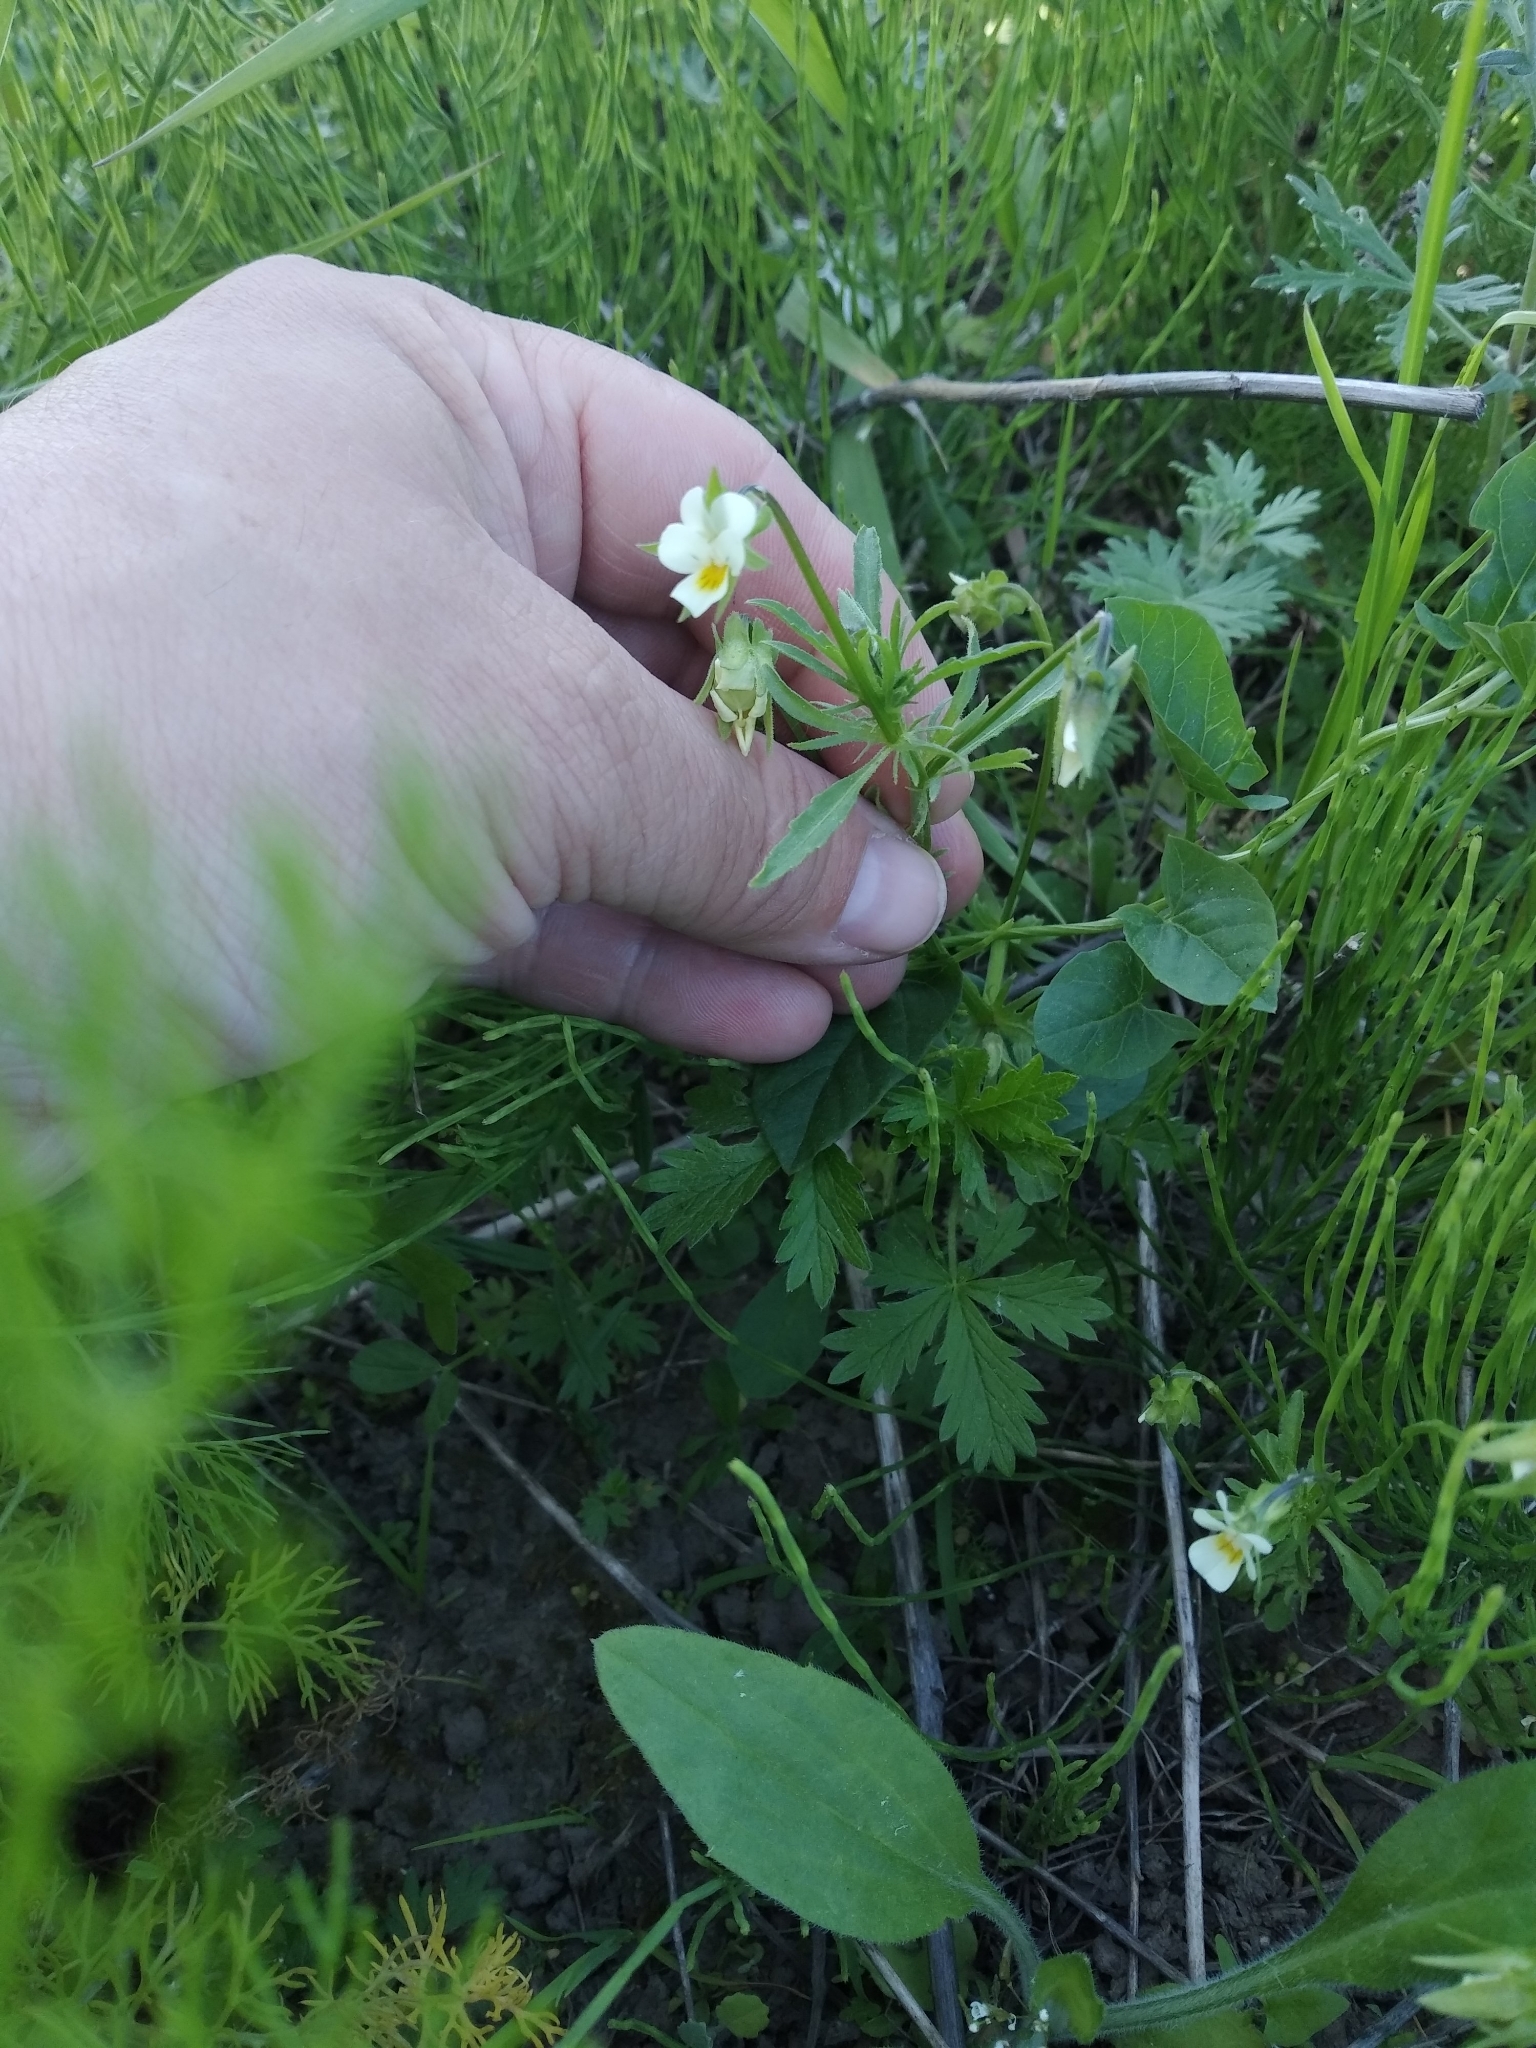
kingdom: Plantae
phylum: Tracheophyta
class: Magnoliopsida
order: Malpighiales
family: Violaceae
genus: Viola
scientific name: Viola arvensis
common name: Field pansy
